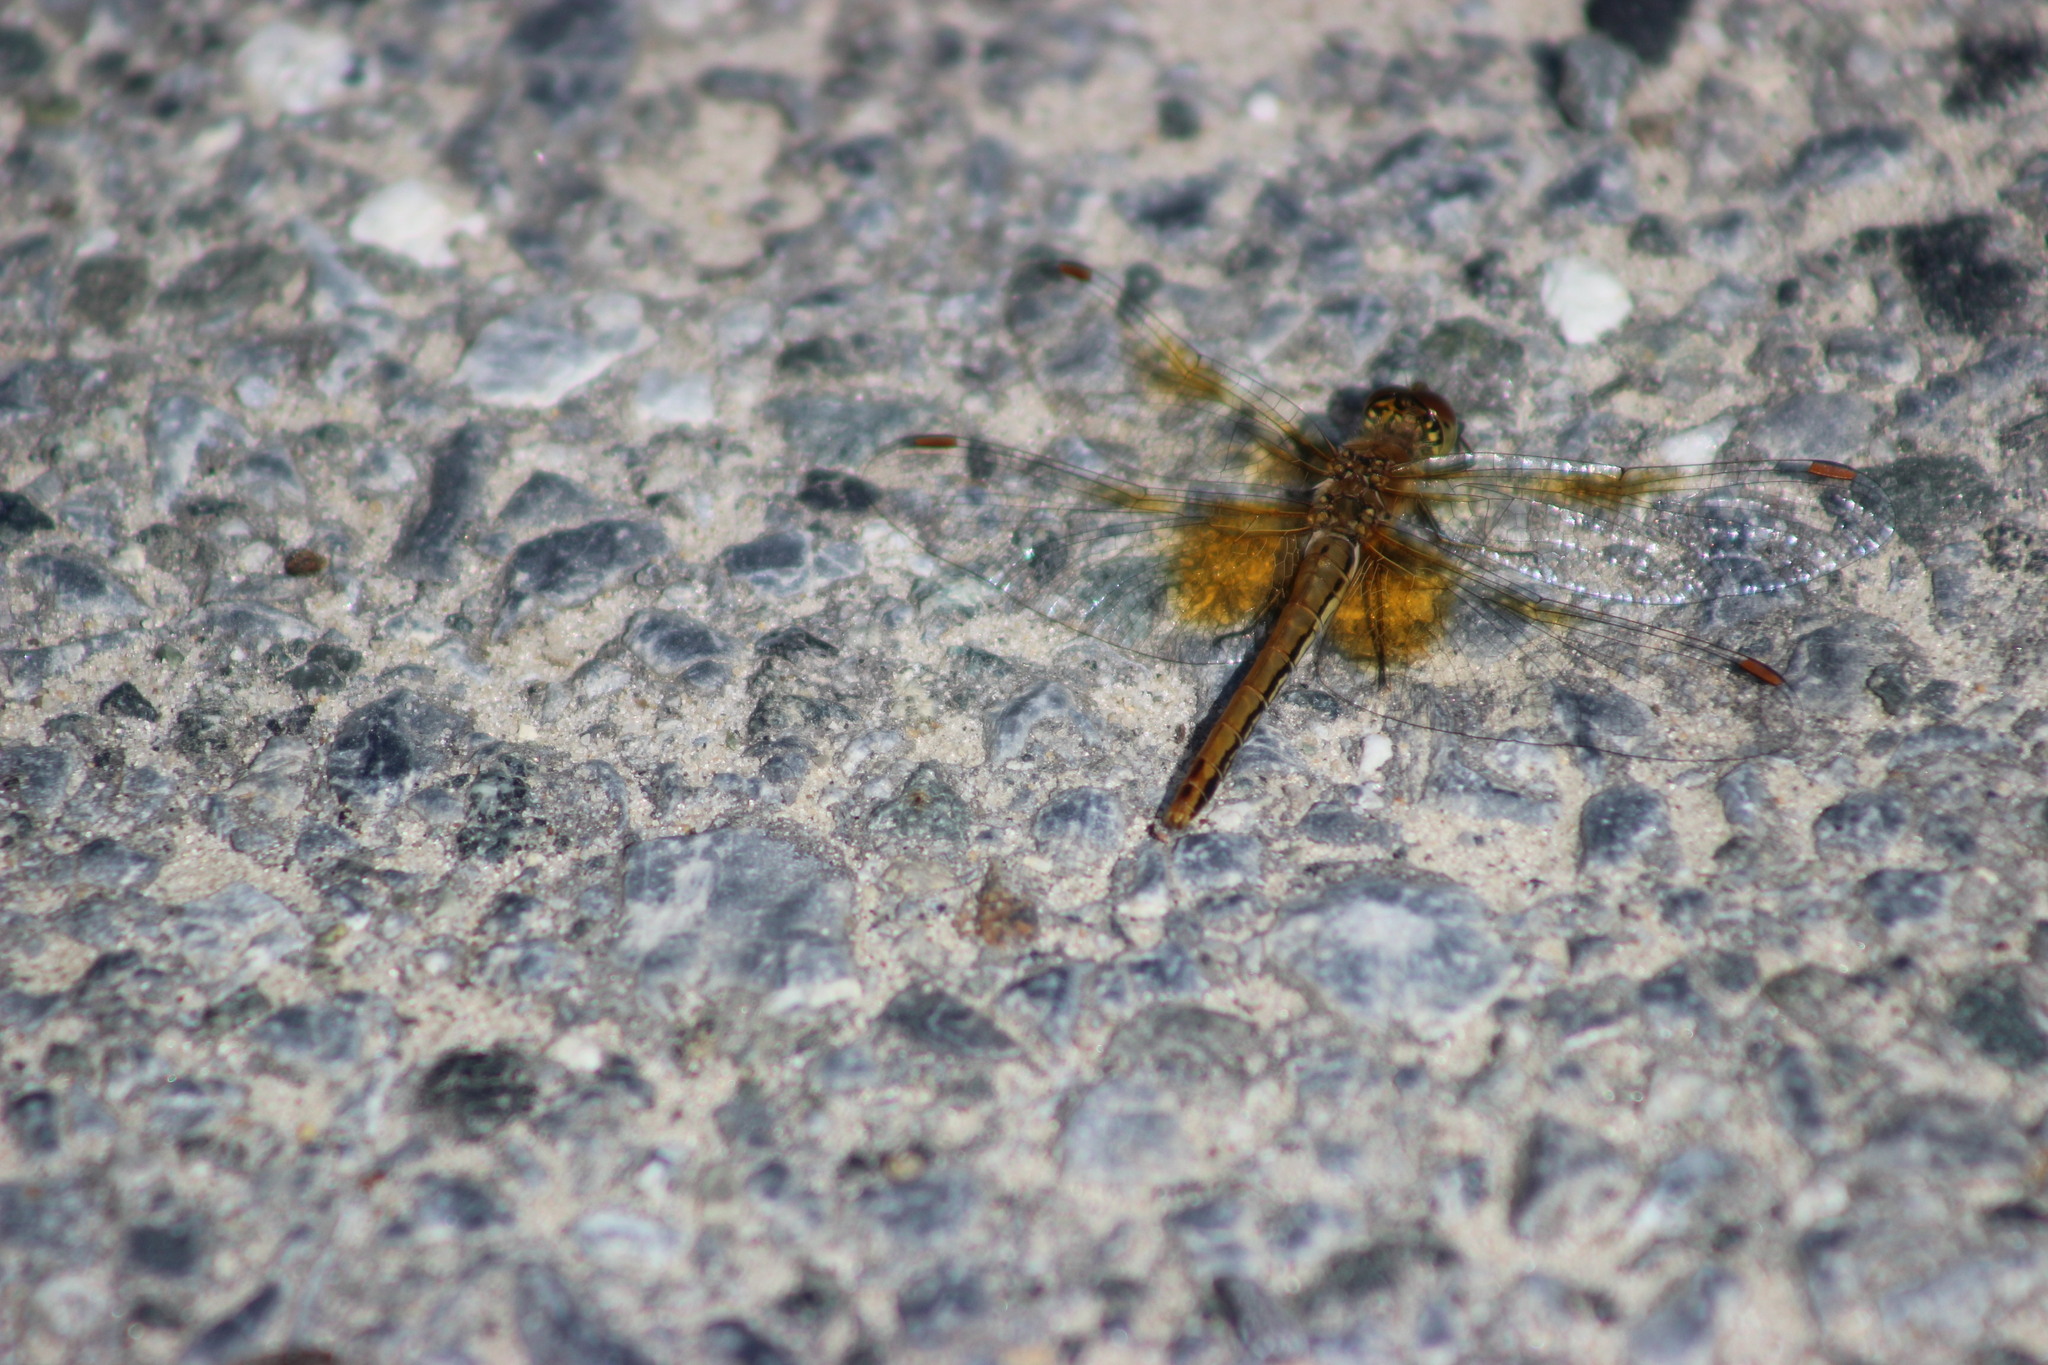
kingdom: Animalia
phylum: Arthropoda
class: Insecta
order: Odonata
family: Libellulidae
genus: Sympetrum
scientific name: Sympetrum flaveolum
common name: Yellow-winged darter
